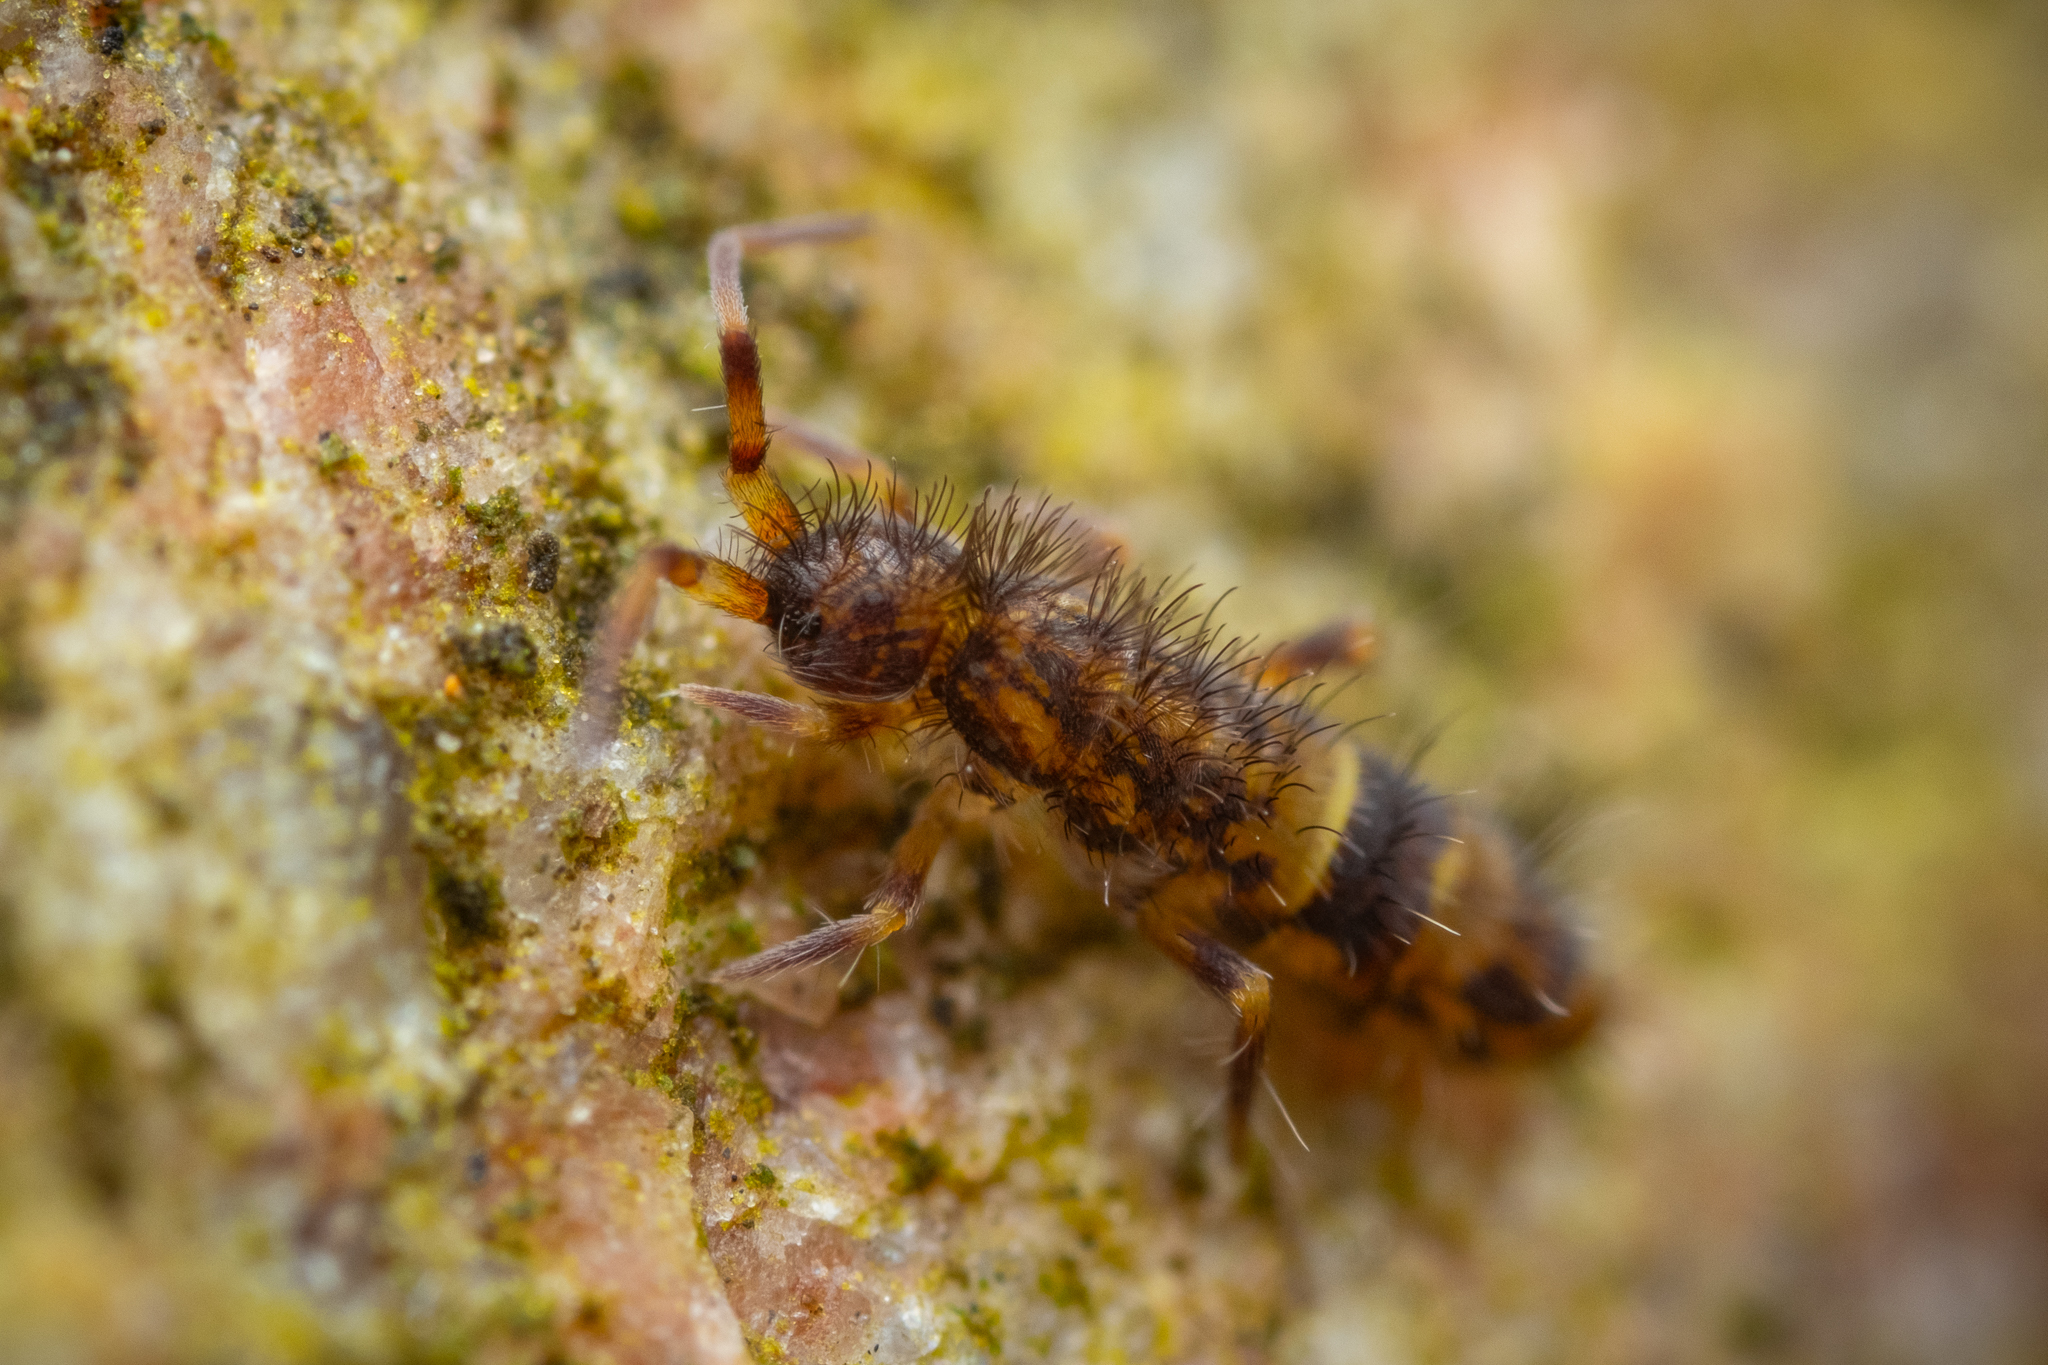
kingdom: Animalia
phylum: Arthropoda
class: Collembola
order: Entomobryomorpha
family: Orchesellidae
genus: Orchesella
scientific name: Orchesella cincta
